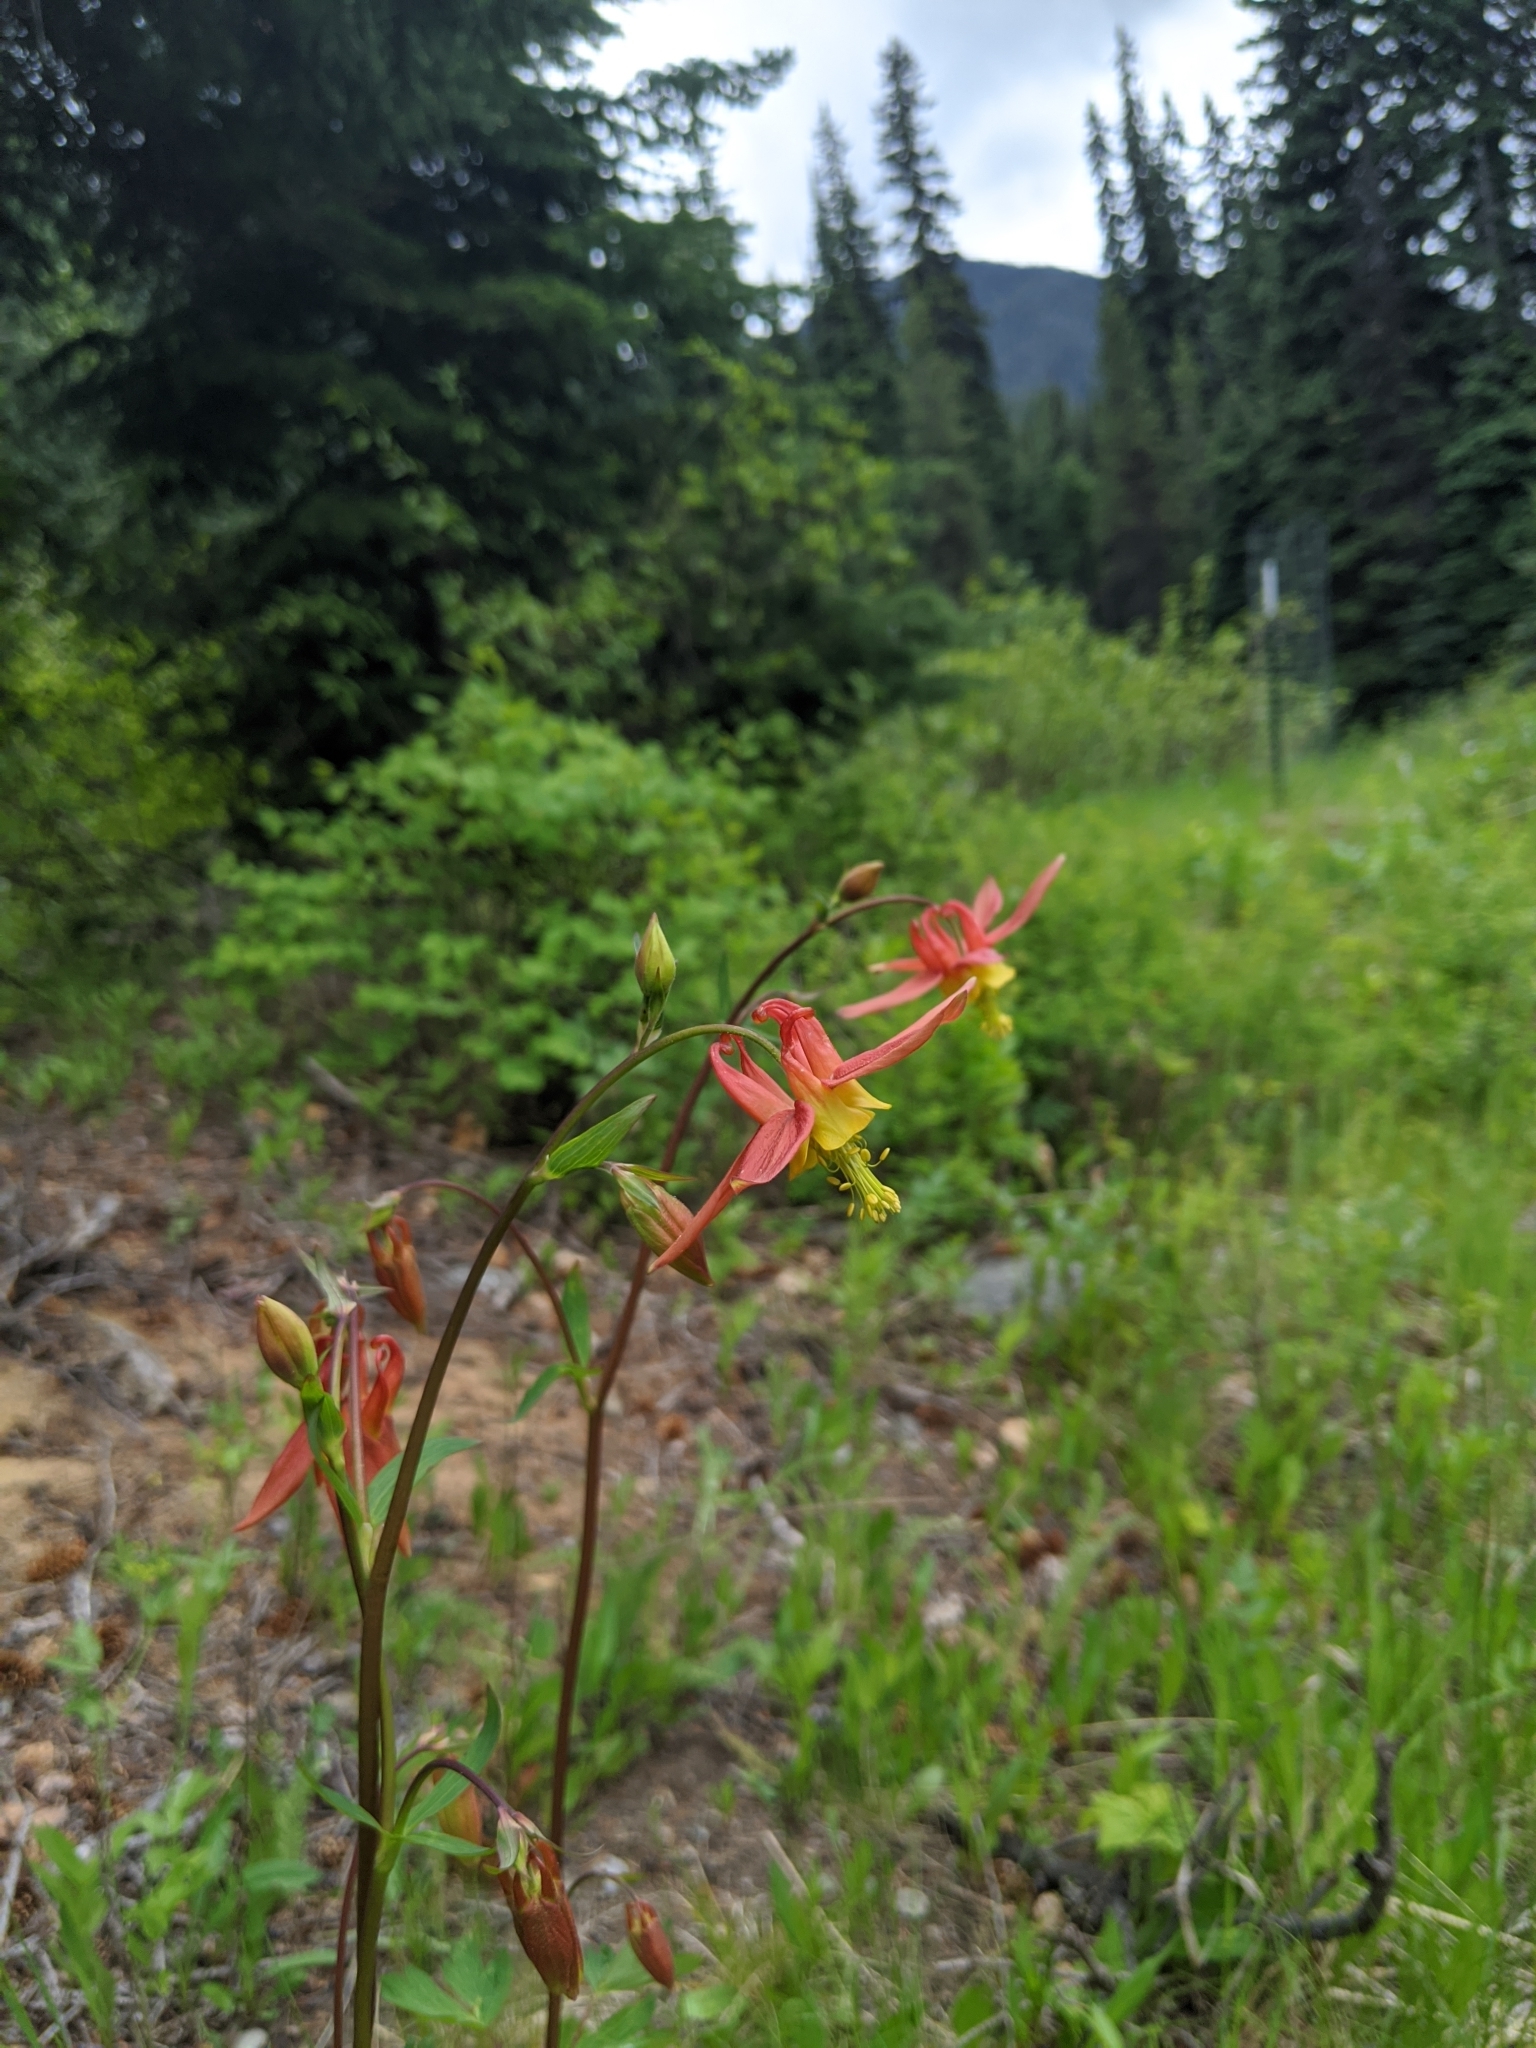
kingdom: Plantae
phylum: Tracheophyta
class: Magnoliopsida
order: Ranunculales
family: Ranunculaceae
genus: Aquilegia
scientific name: Aquilegia formosa
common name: Sitka columbine
